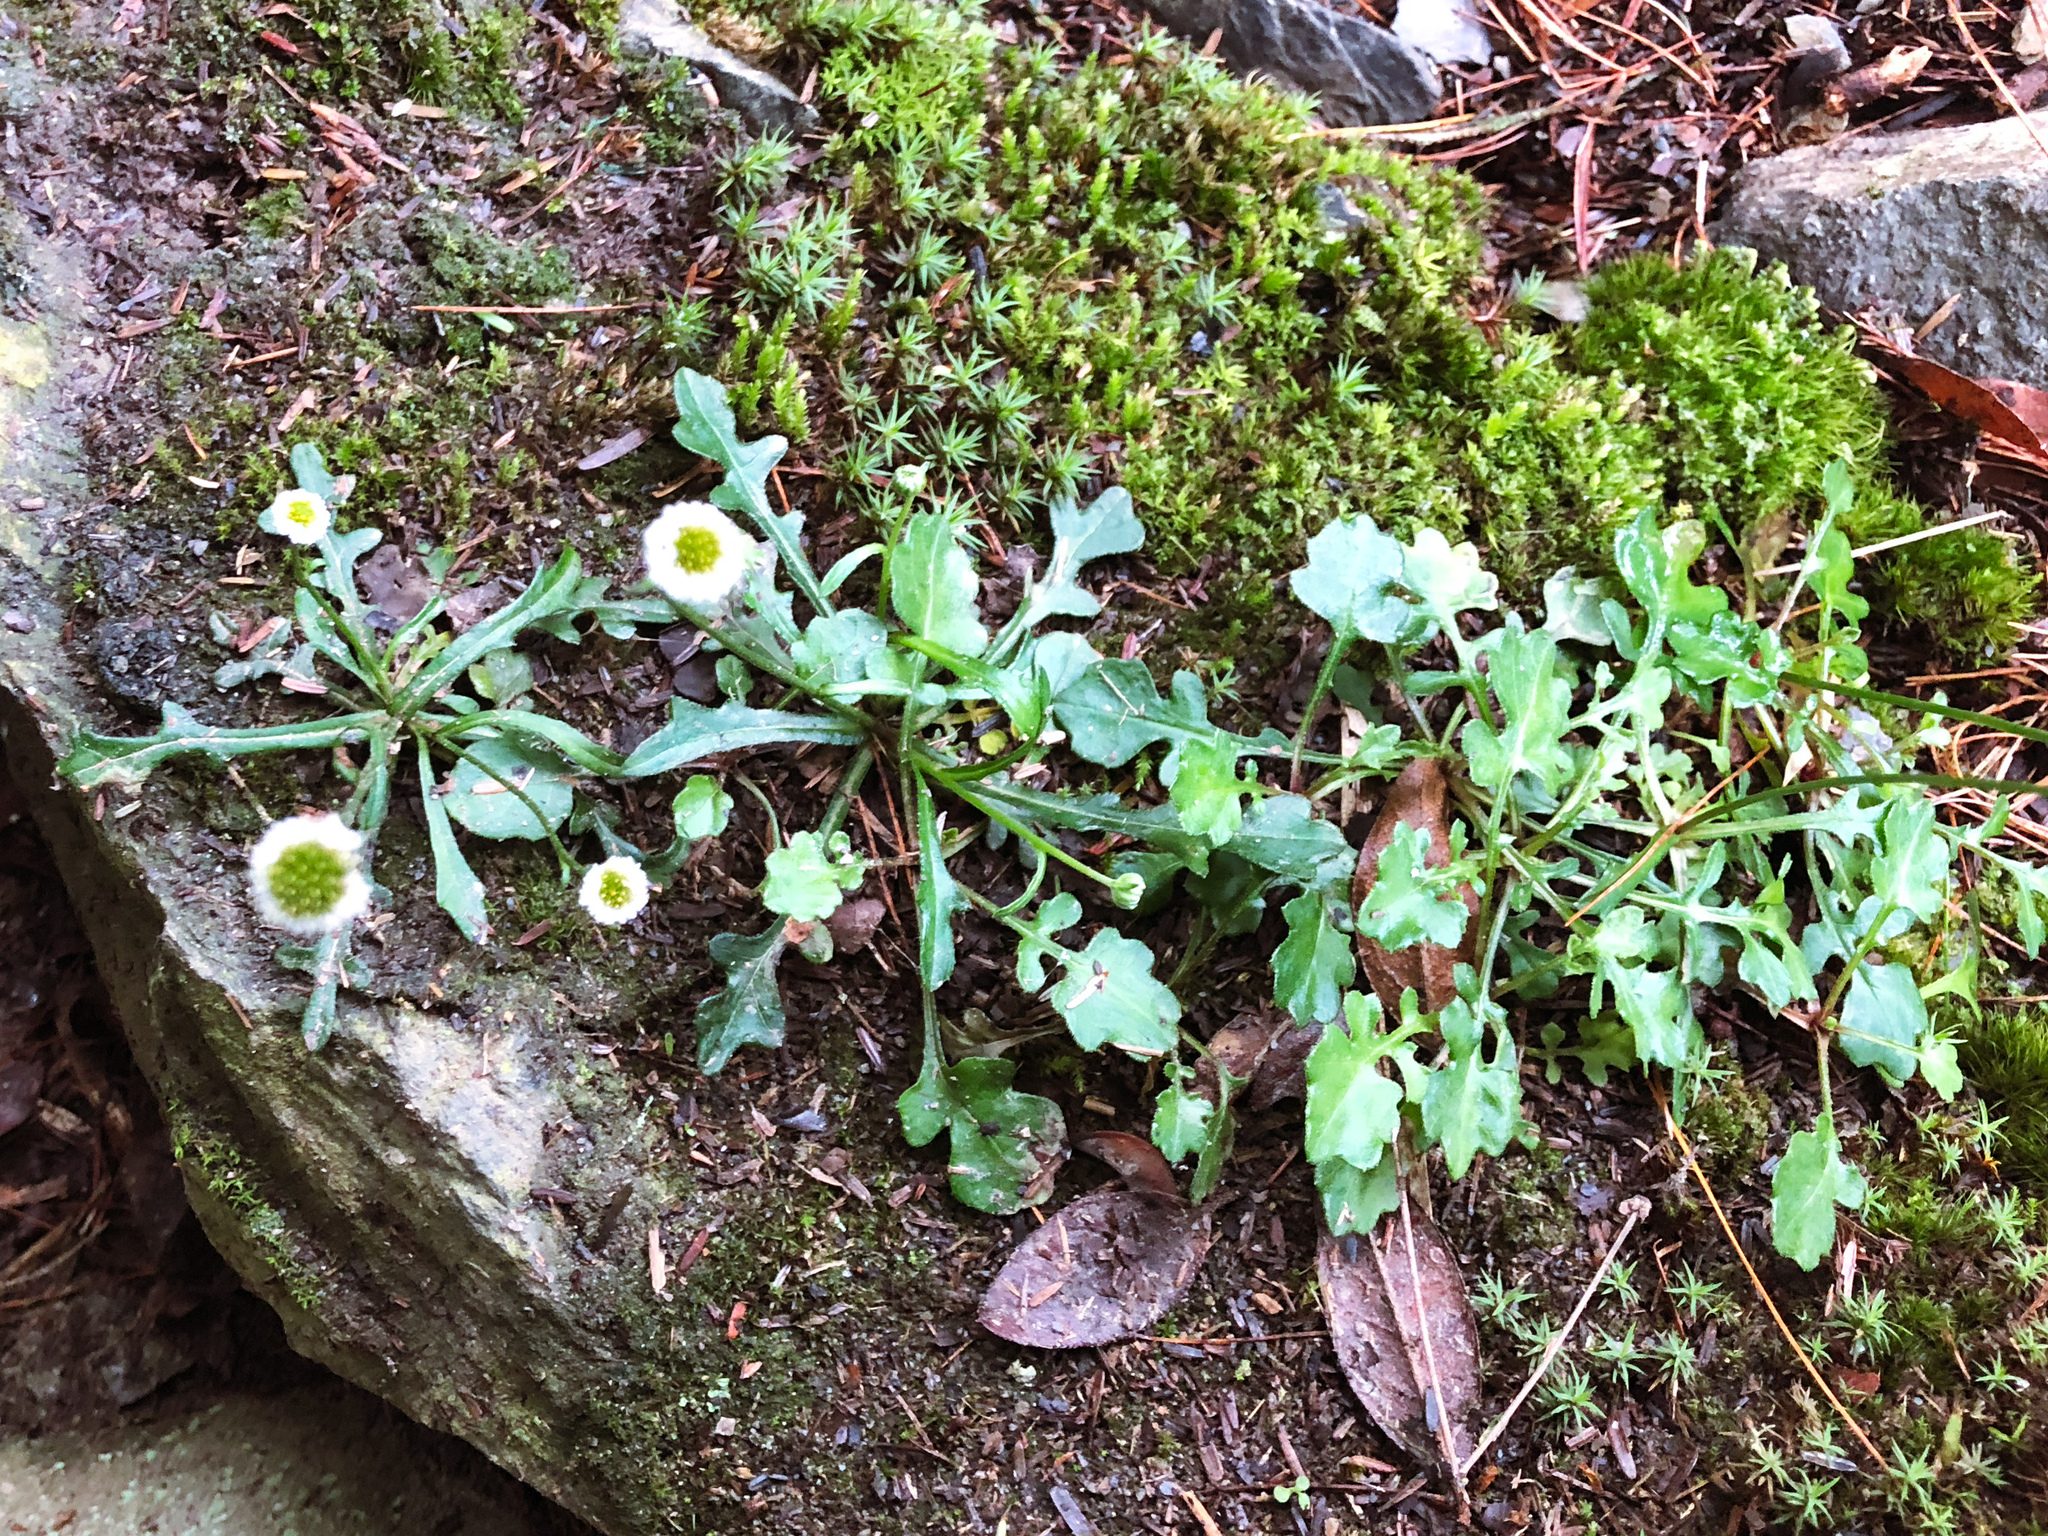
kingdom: Plantae
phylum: Tracheophyta
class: Magnoliopsida
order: Asterales
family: Asteraceae
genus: Myriactis
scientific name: Myriactis humilis
